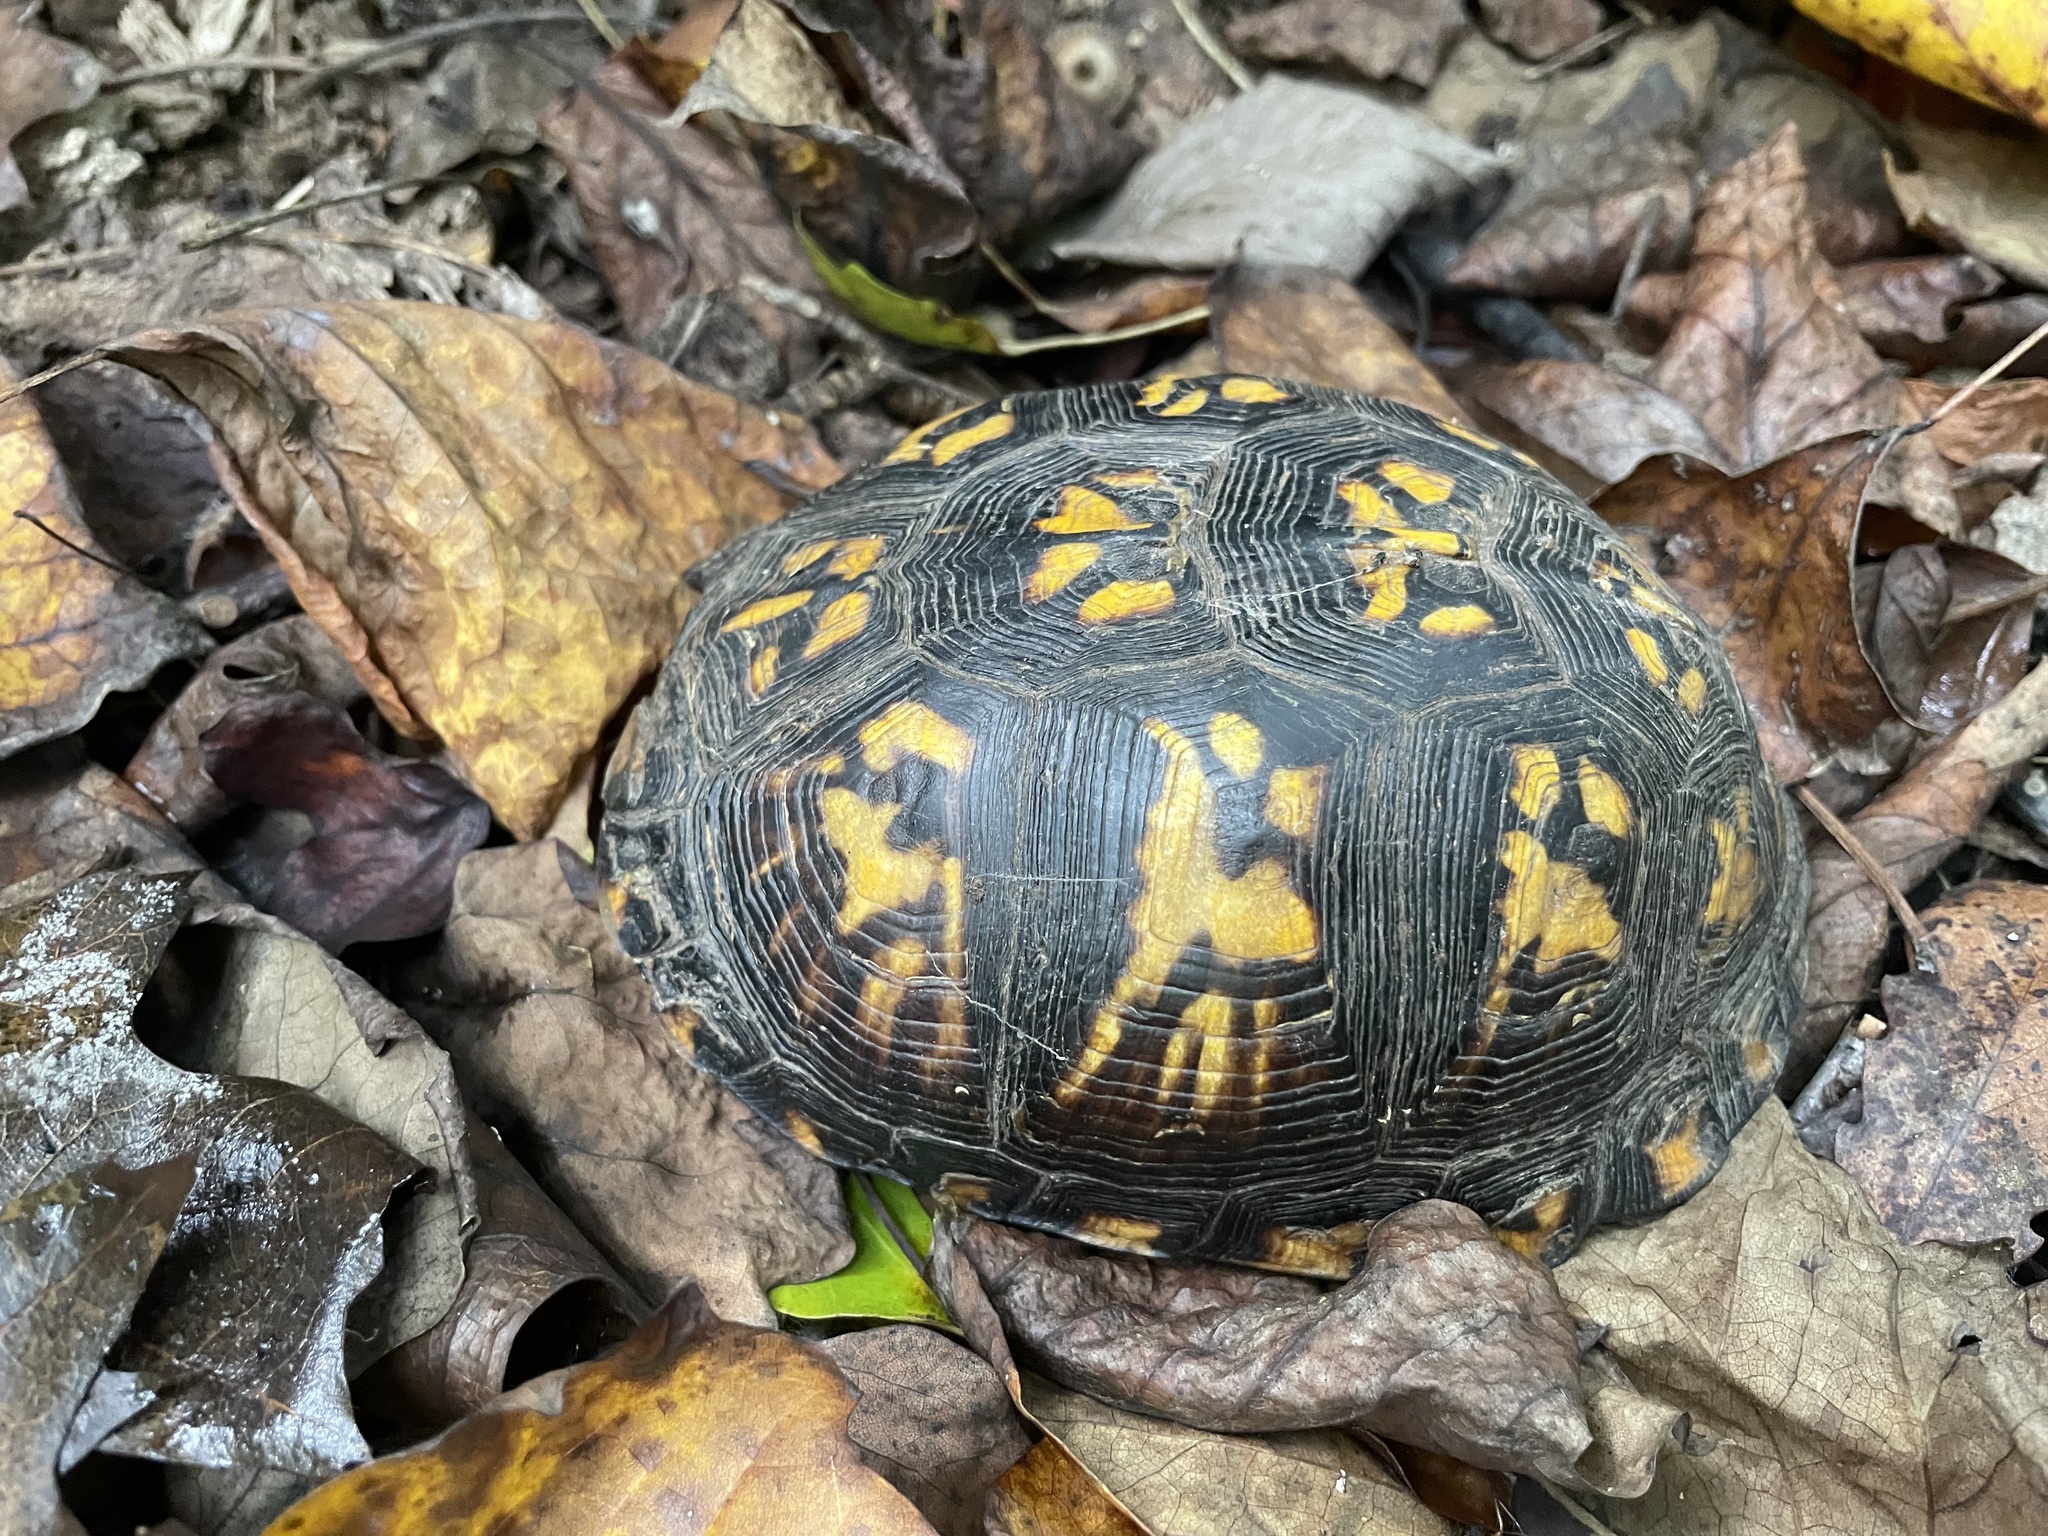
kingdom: Animalia
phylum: Chordata
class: Testudines
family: Emydidae
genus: Terrapene
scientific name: Terrapene carolina
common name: Common box turtle
